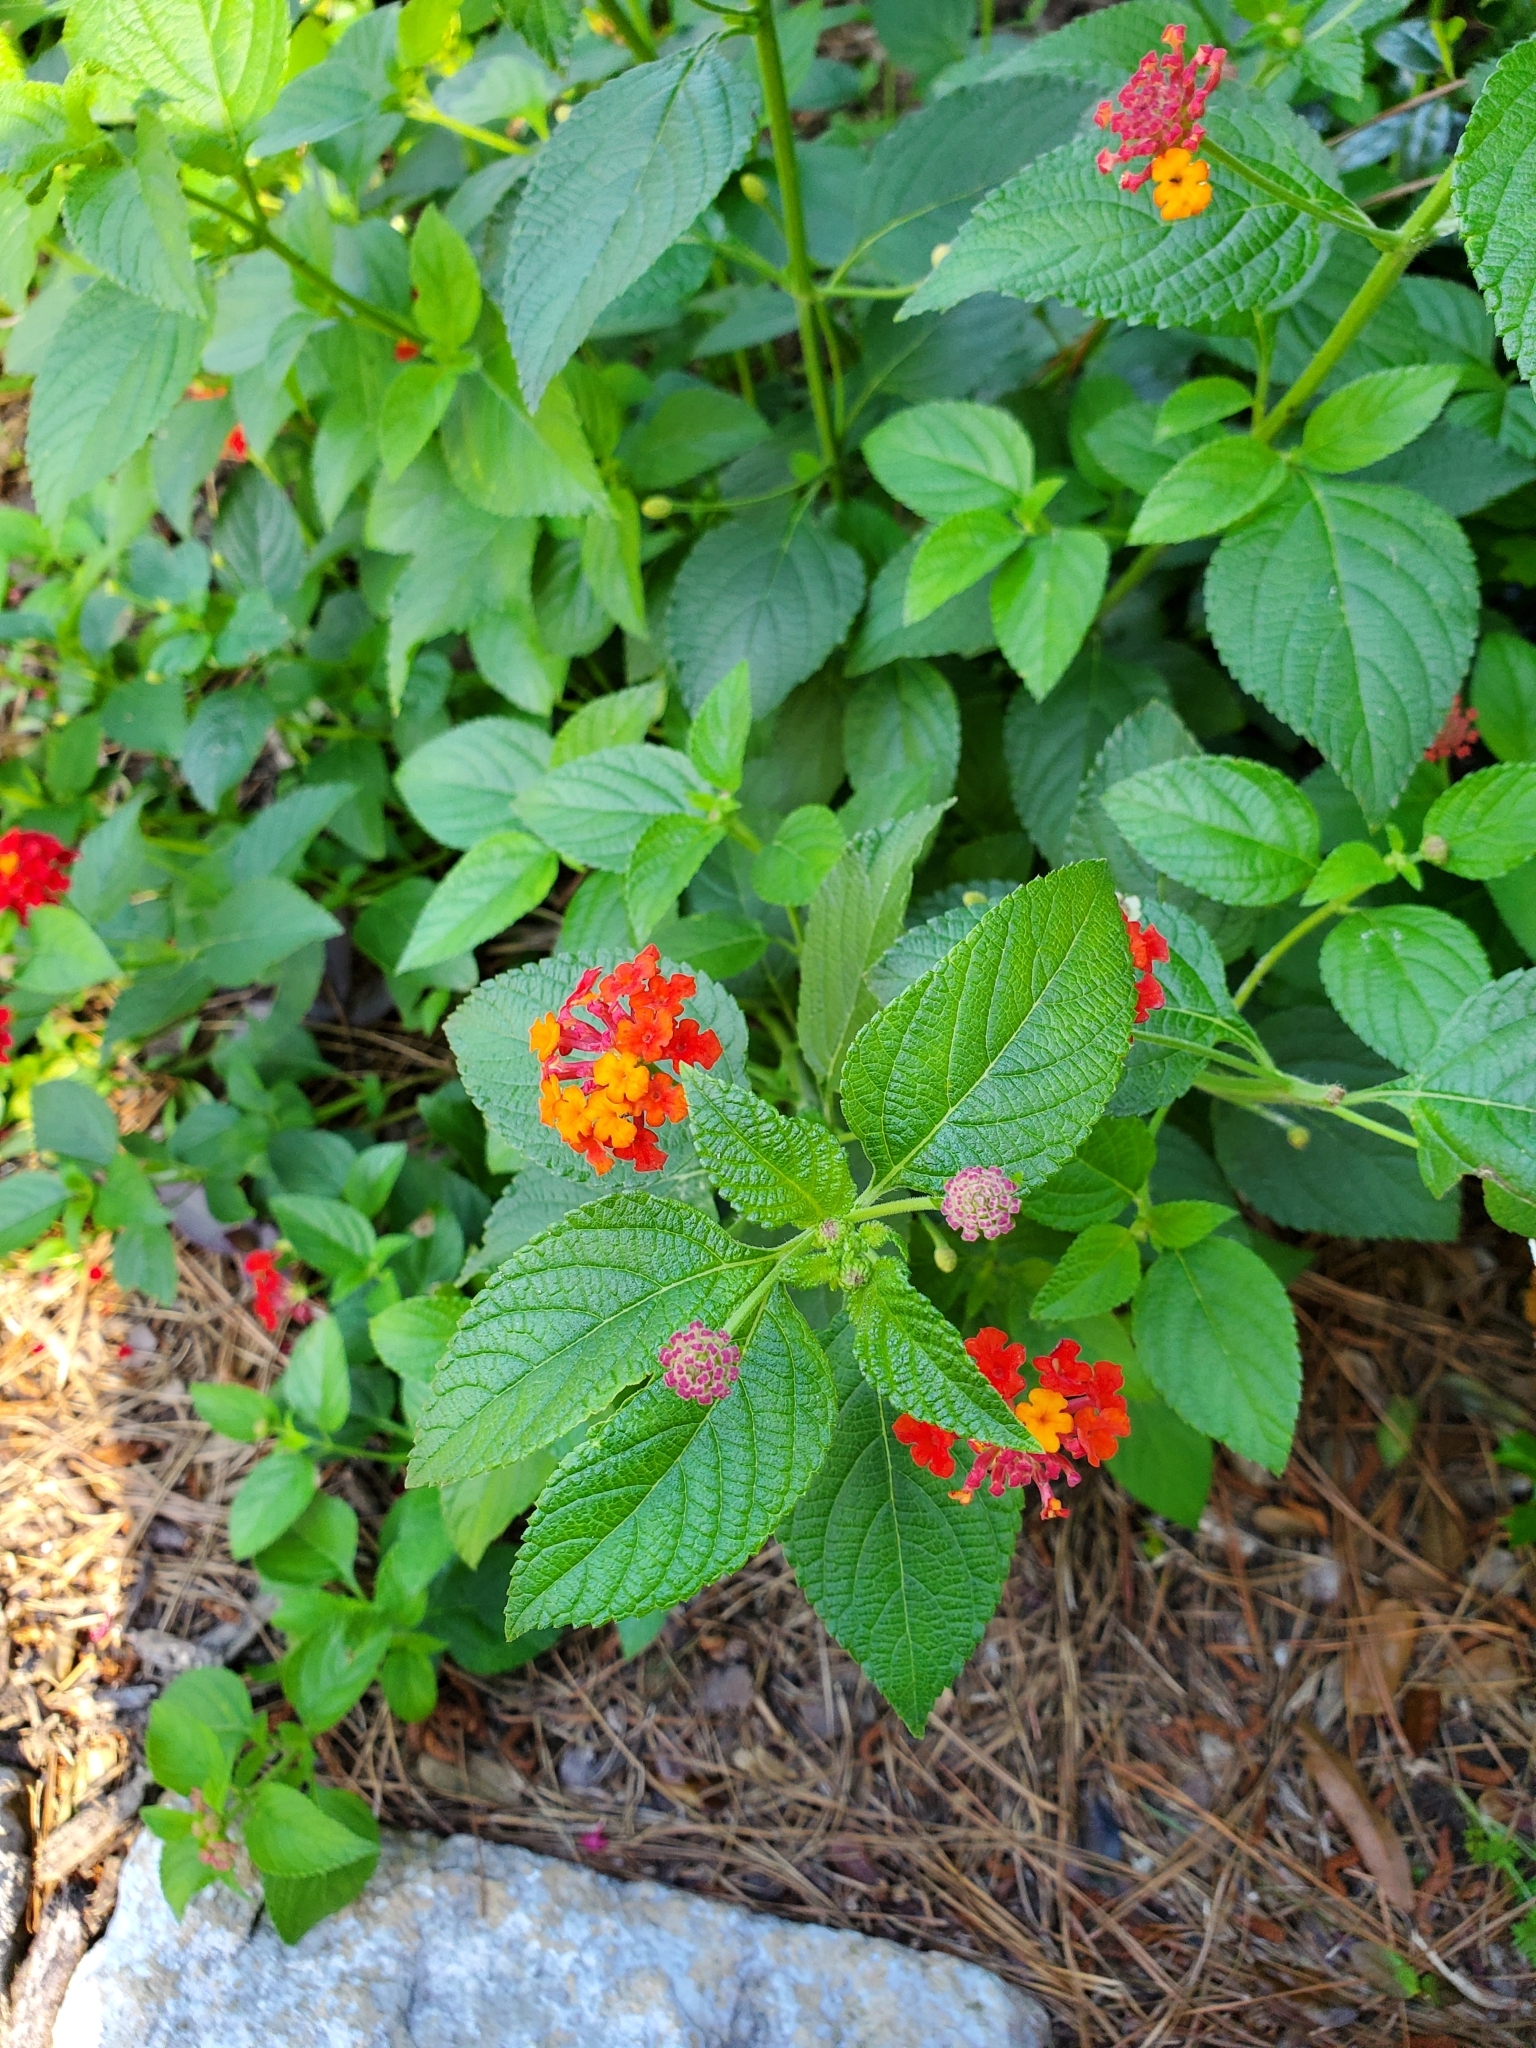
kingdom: Animalia
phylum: Arthropoda
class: Insecta
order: Diptera
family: Agromyzidae
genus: Calycomyza
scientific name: Calycomyza lantanae
